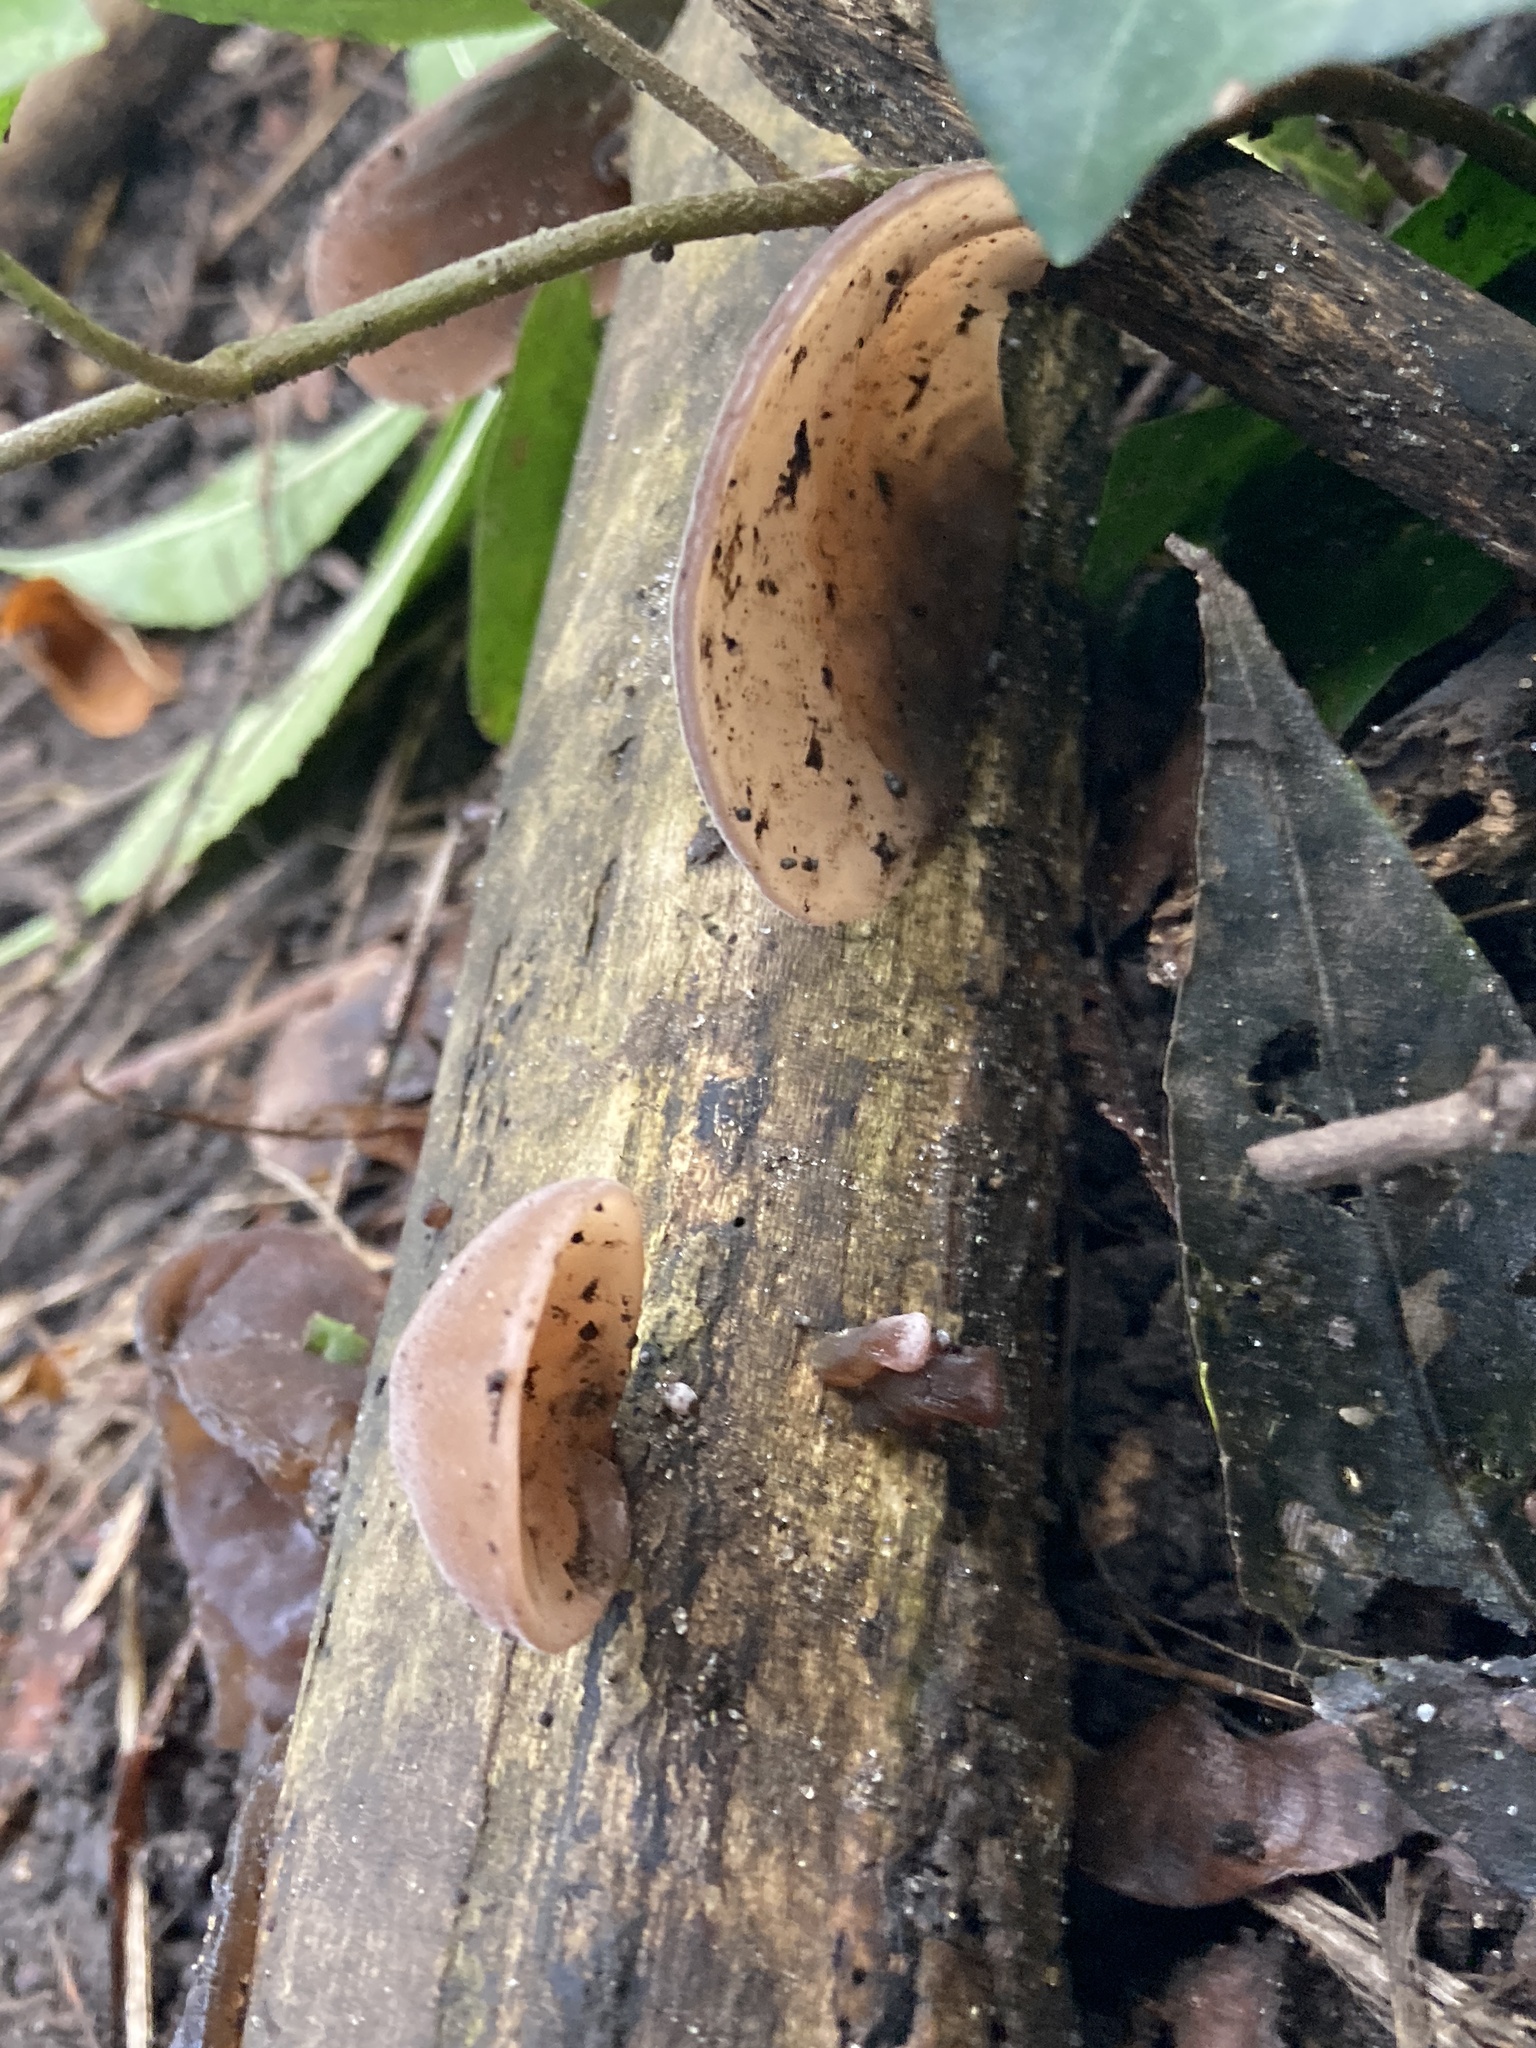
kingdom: Fungi
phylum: Basidiomycota
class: Agaricomycetes
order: Auriculariales
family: Auriculariaceae
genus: Auricularia
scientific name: Auricularia auricula-judae
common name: Jelly ear
